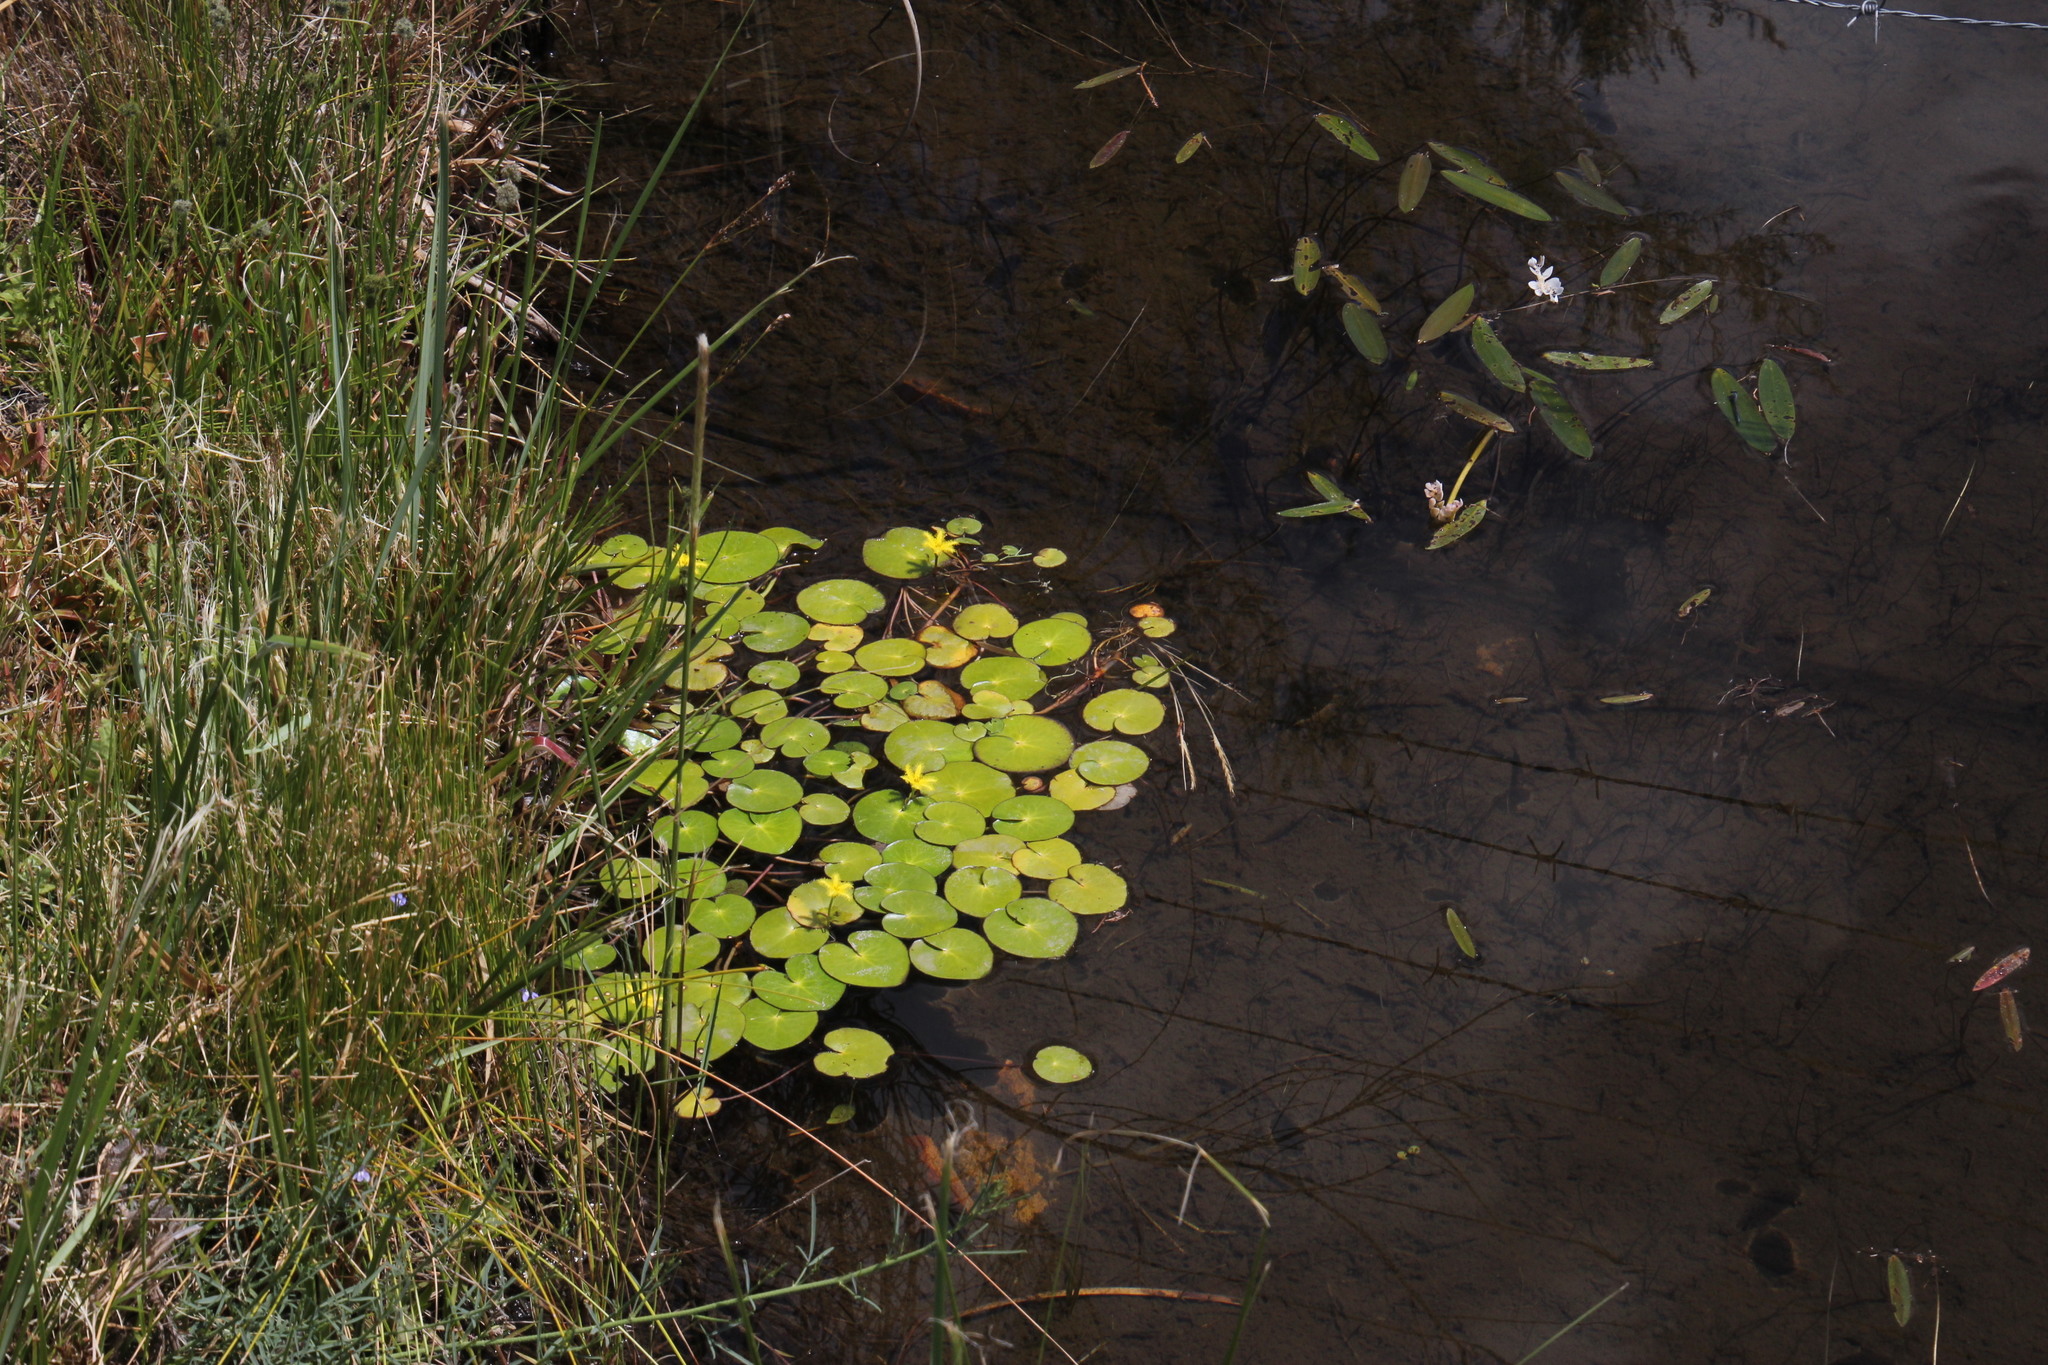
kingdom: Plantae
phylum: Tracheophyta
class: Magnoliopsida
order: Asterales
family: Menyanthaceae
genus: Nymphoides
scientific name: Nymphoides thunbergiana
